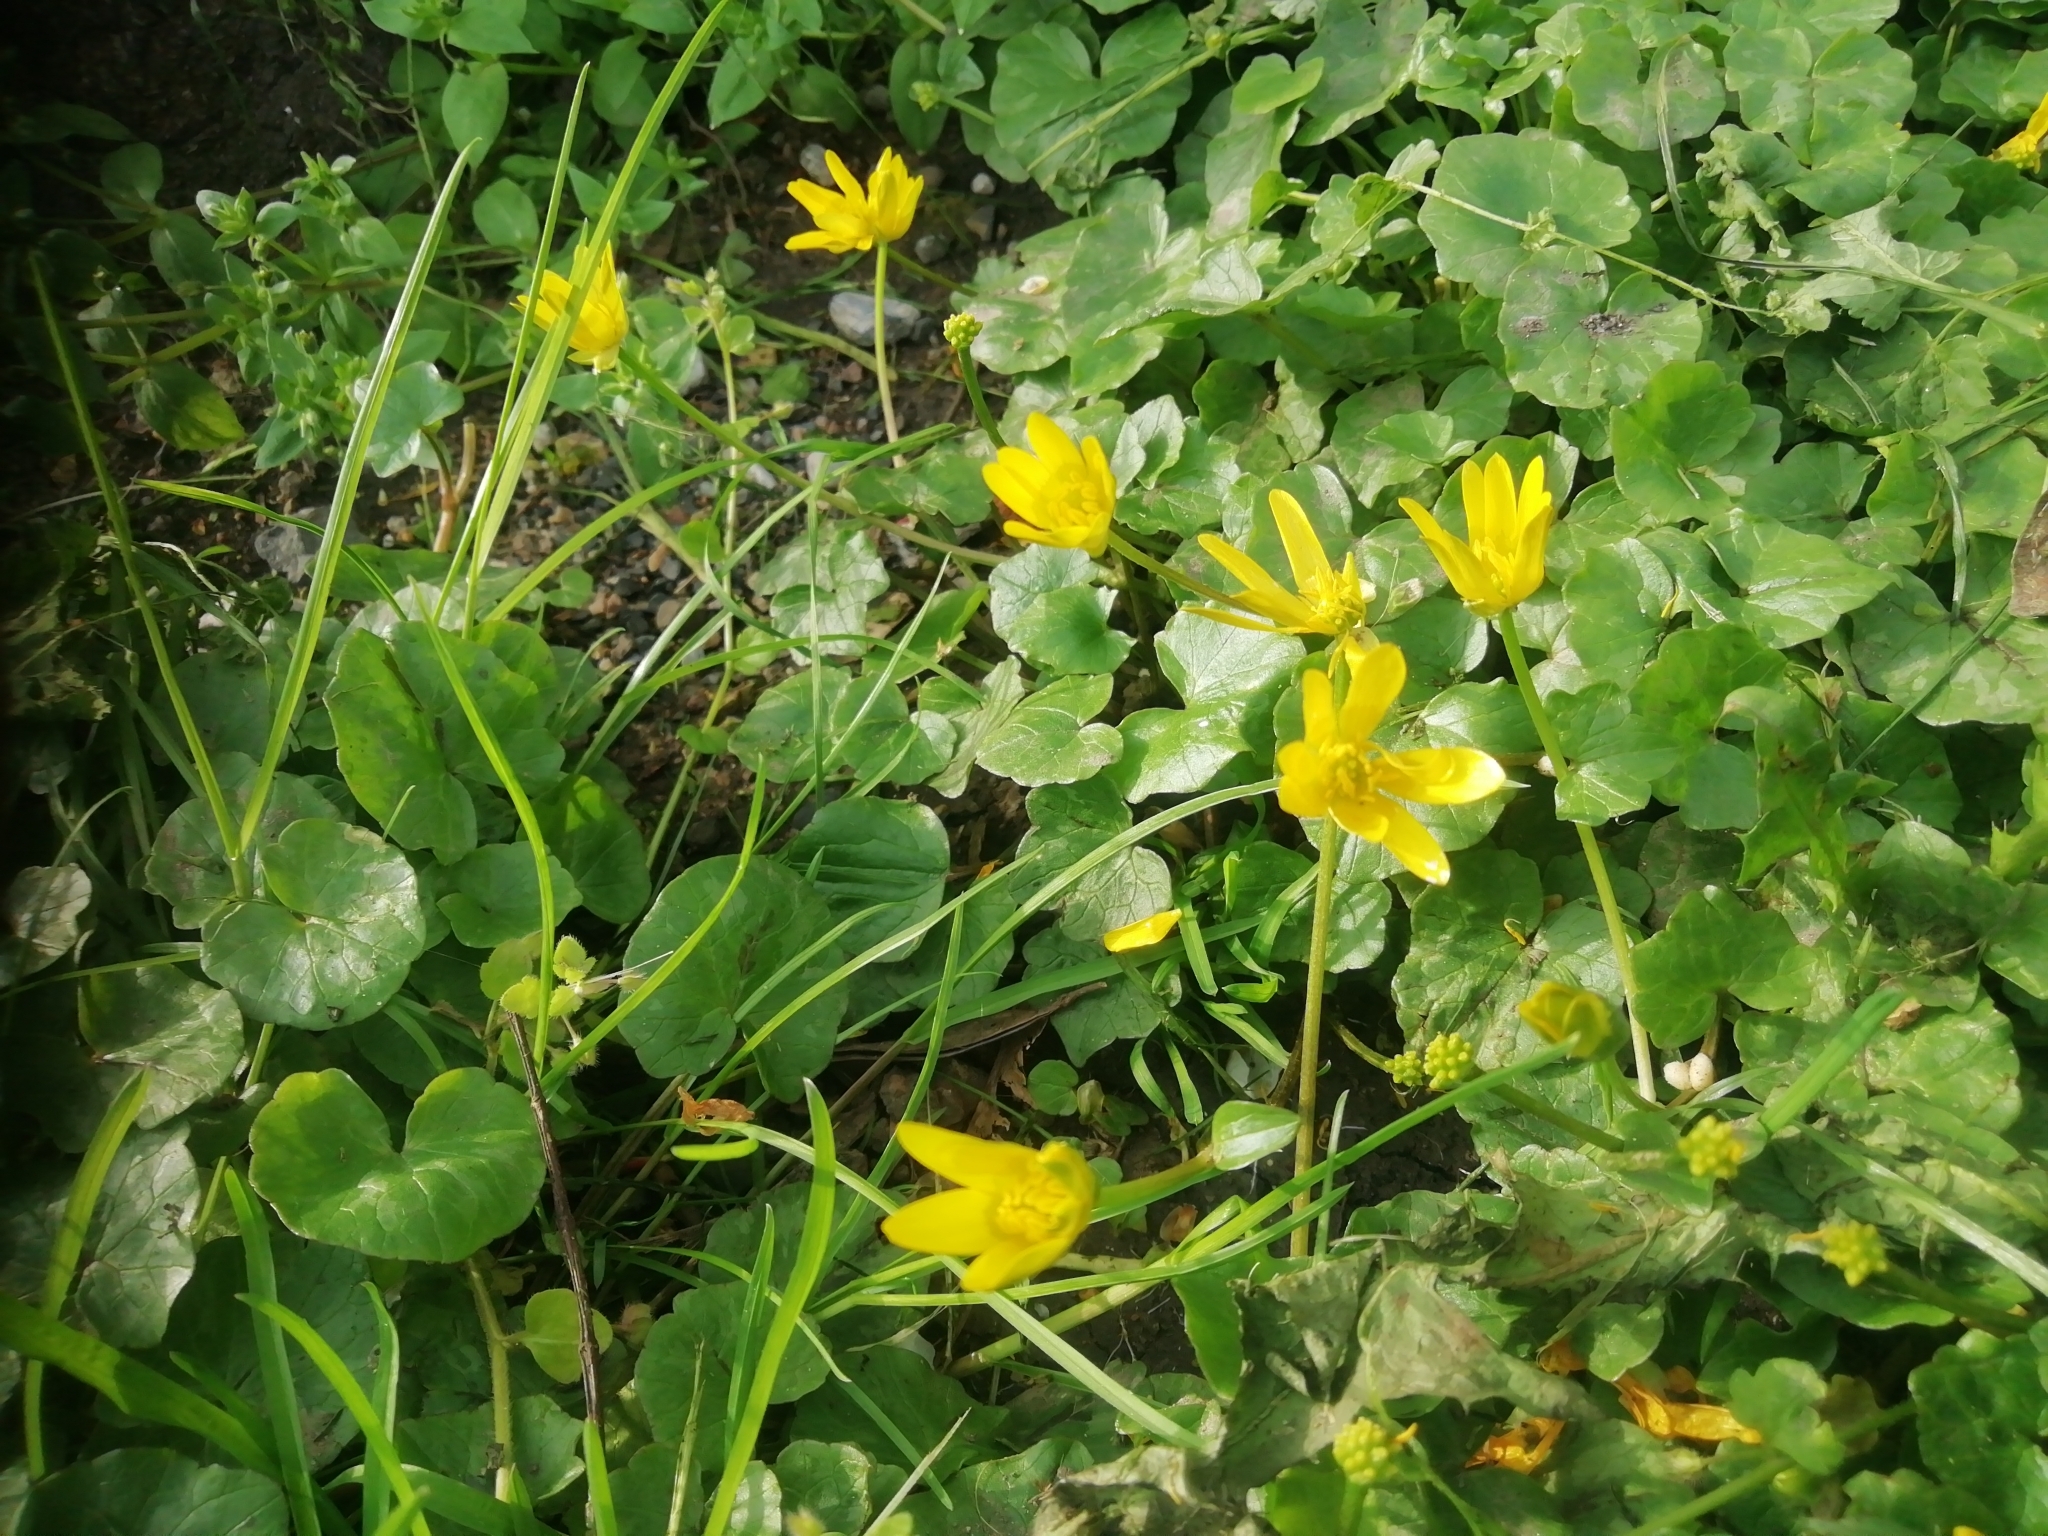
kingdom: Plantae
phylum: Tracheophyta
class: Magnoliopsida
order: Ranunculales
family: Ranunculaceae
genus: Ficaria
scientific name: Ficaria verna
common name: Lesser celandine
